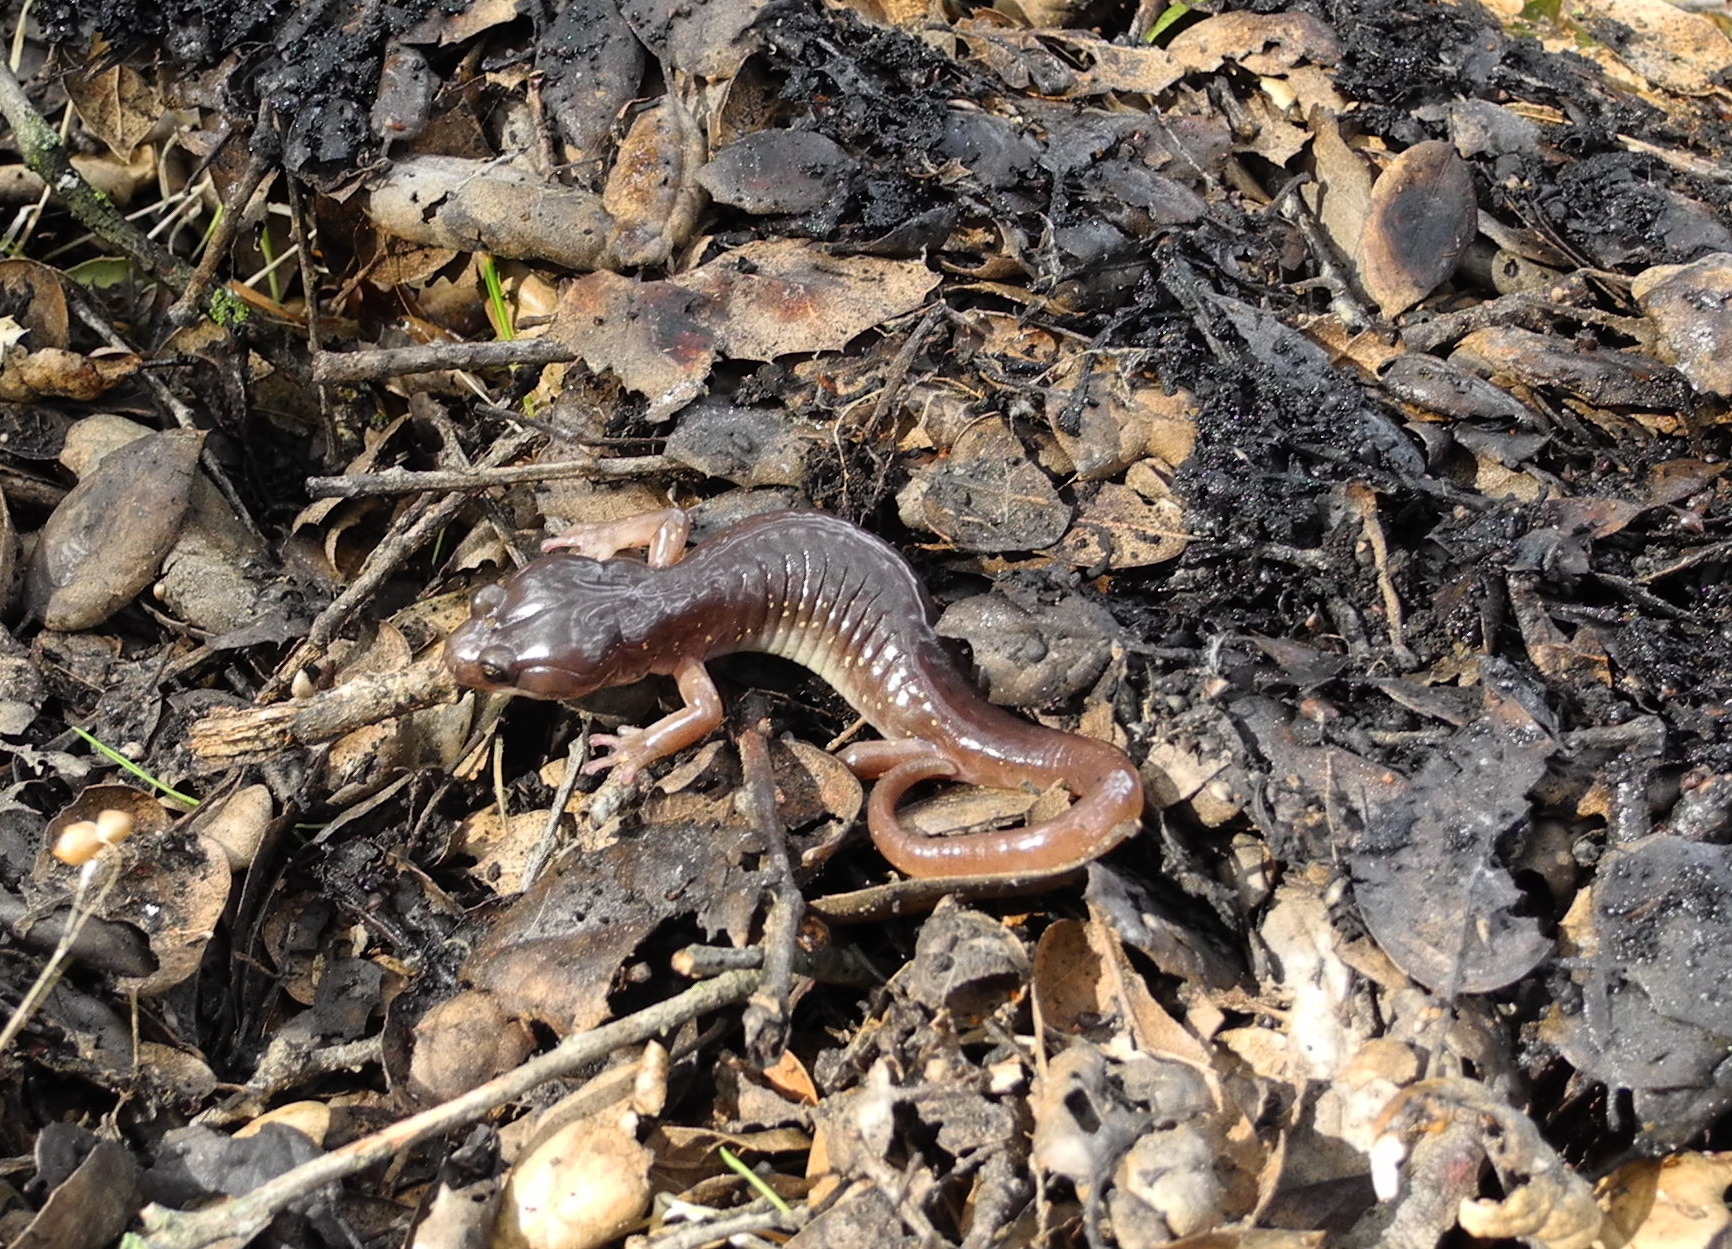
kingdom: Animalia
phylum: Chordata
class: Amphibia
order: Caudata
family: Plethodontidae
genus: Aneides
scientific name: Aneides lugubris
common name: Arboreal salamander
